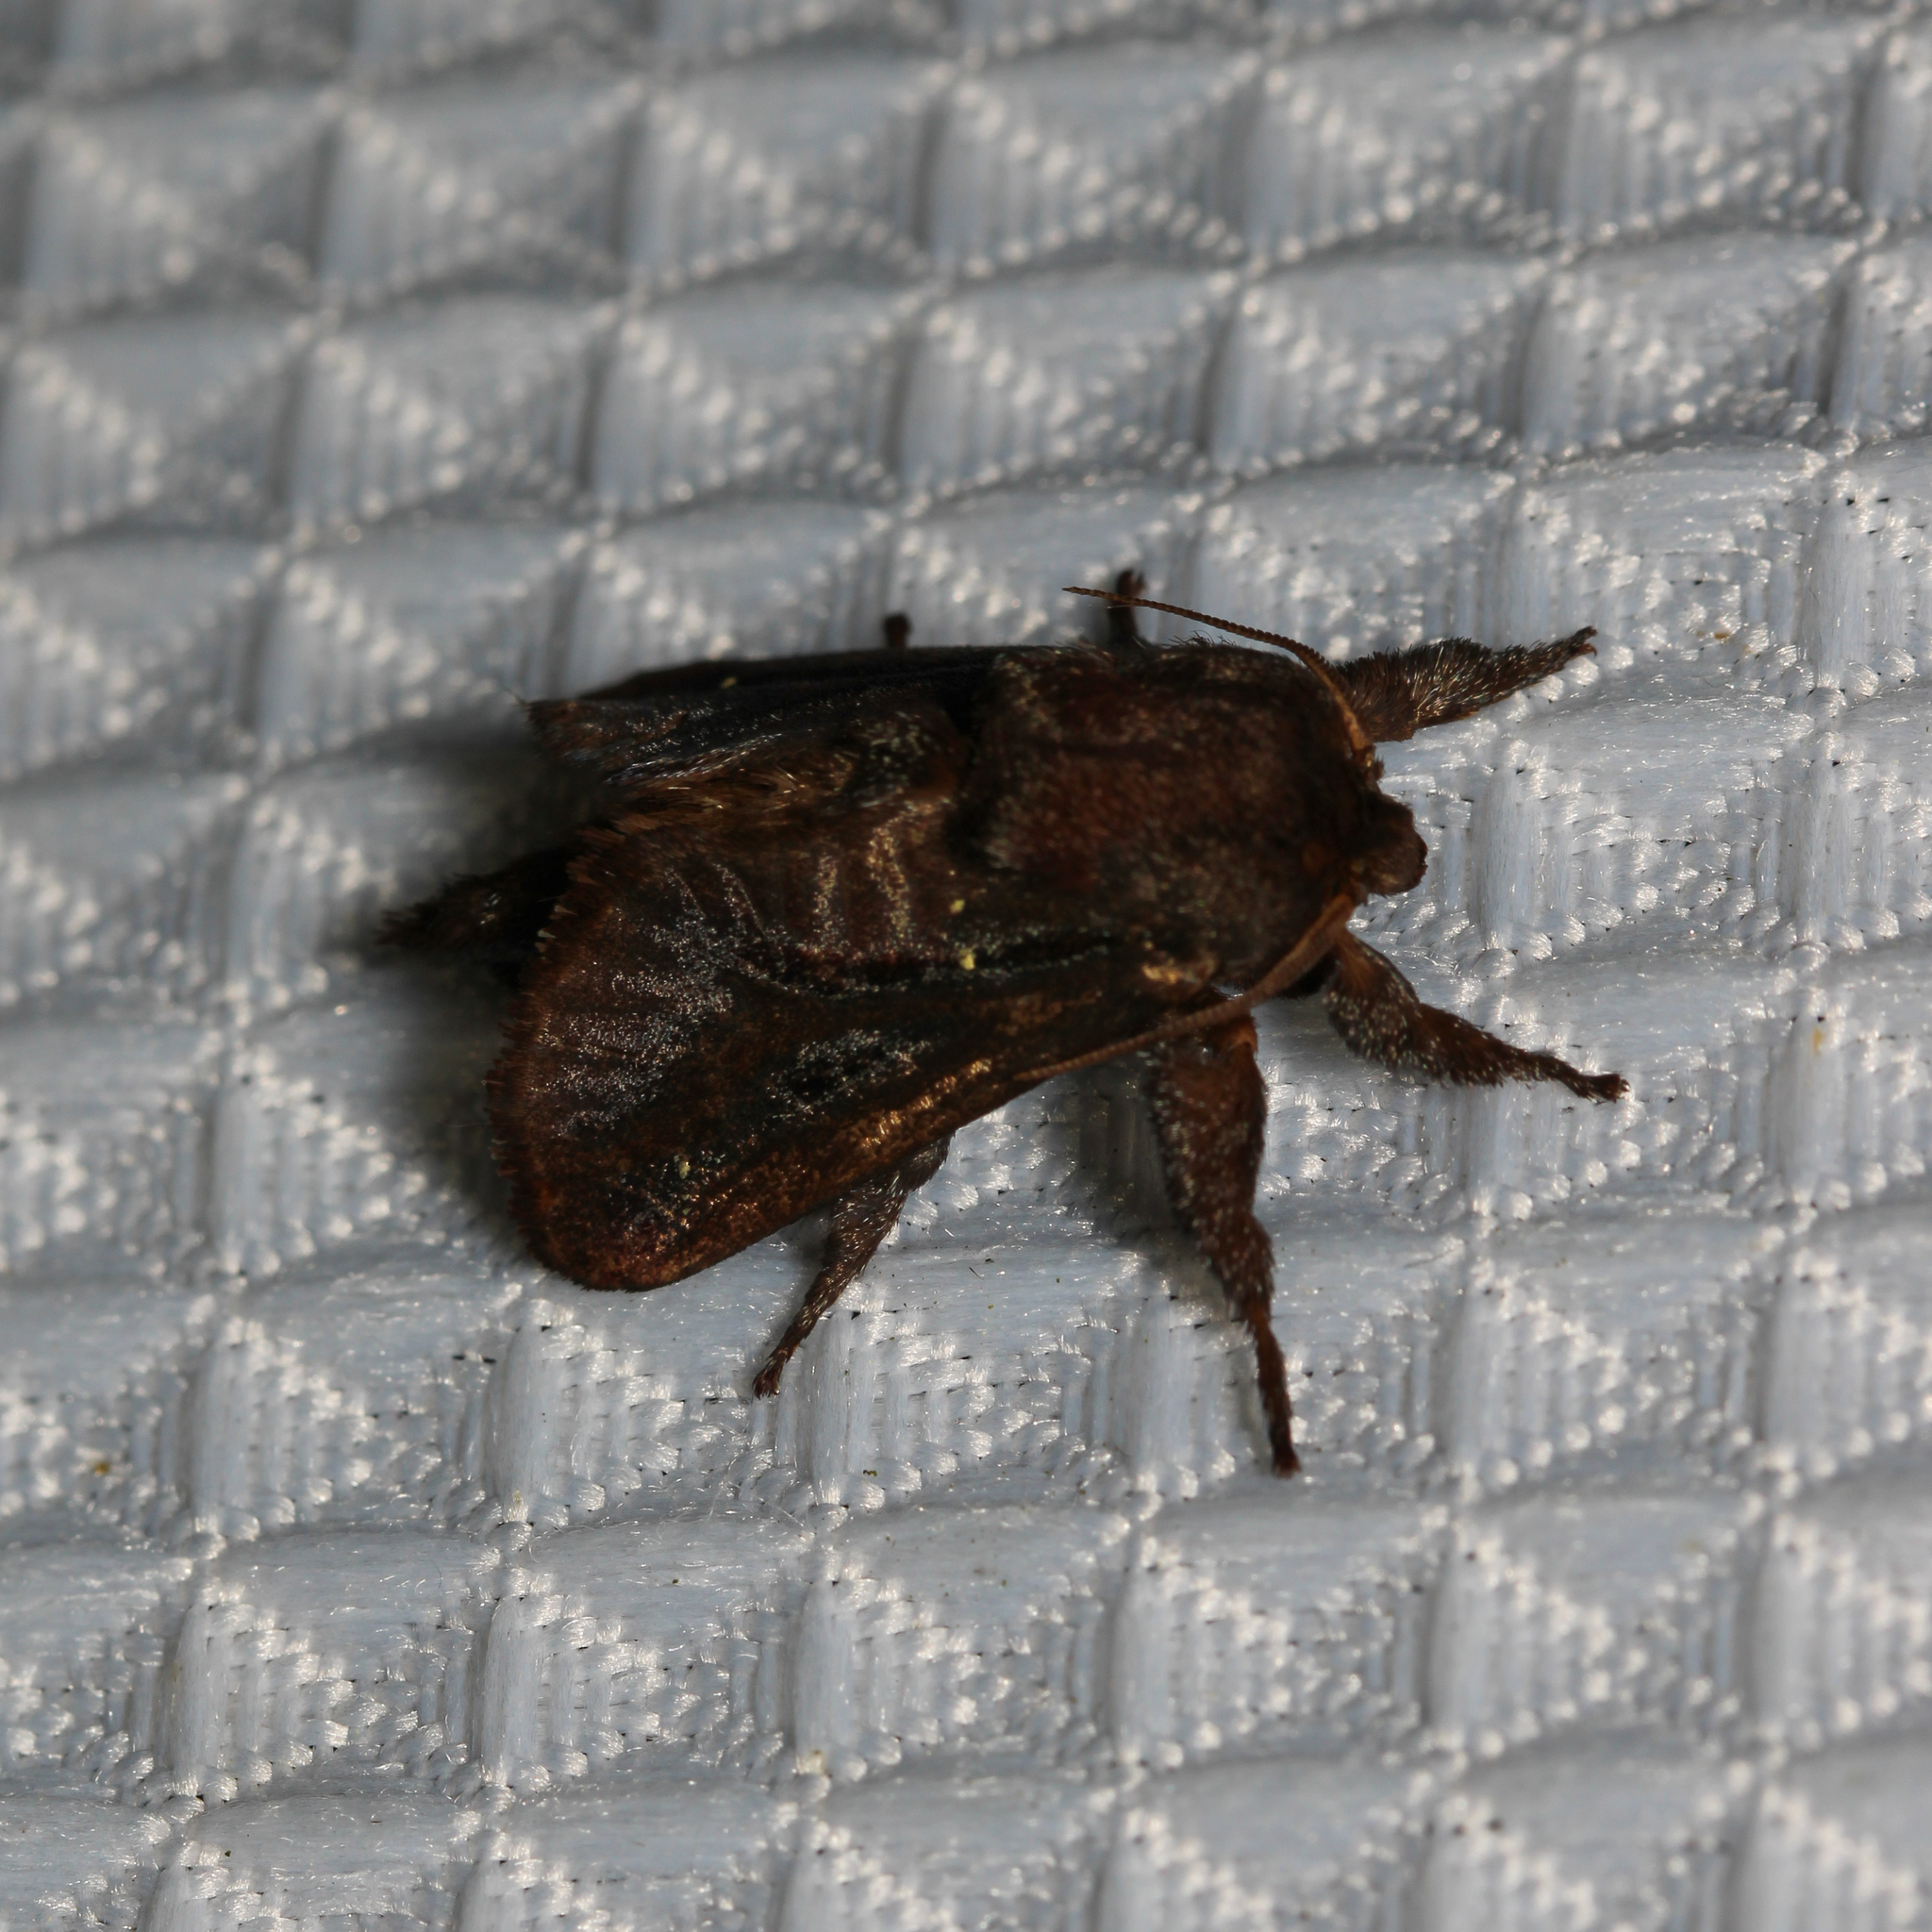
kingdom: Animalia
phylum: Arthropoda
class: Insecta
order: Lepidoptera
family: Limacodidae
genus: Acharia
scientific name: Acharia stimulea
